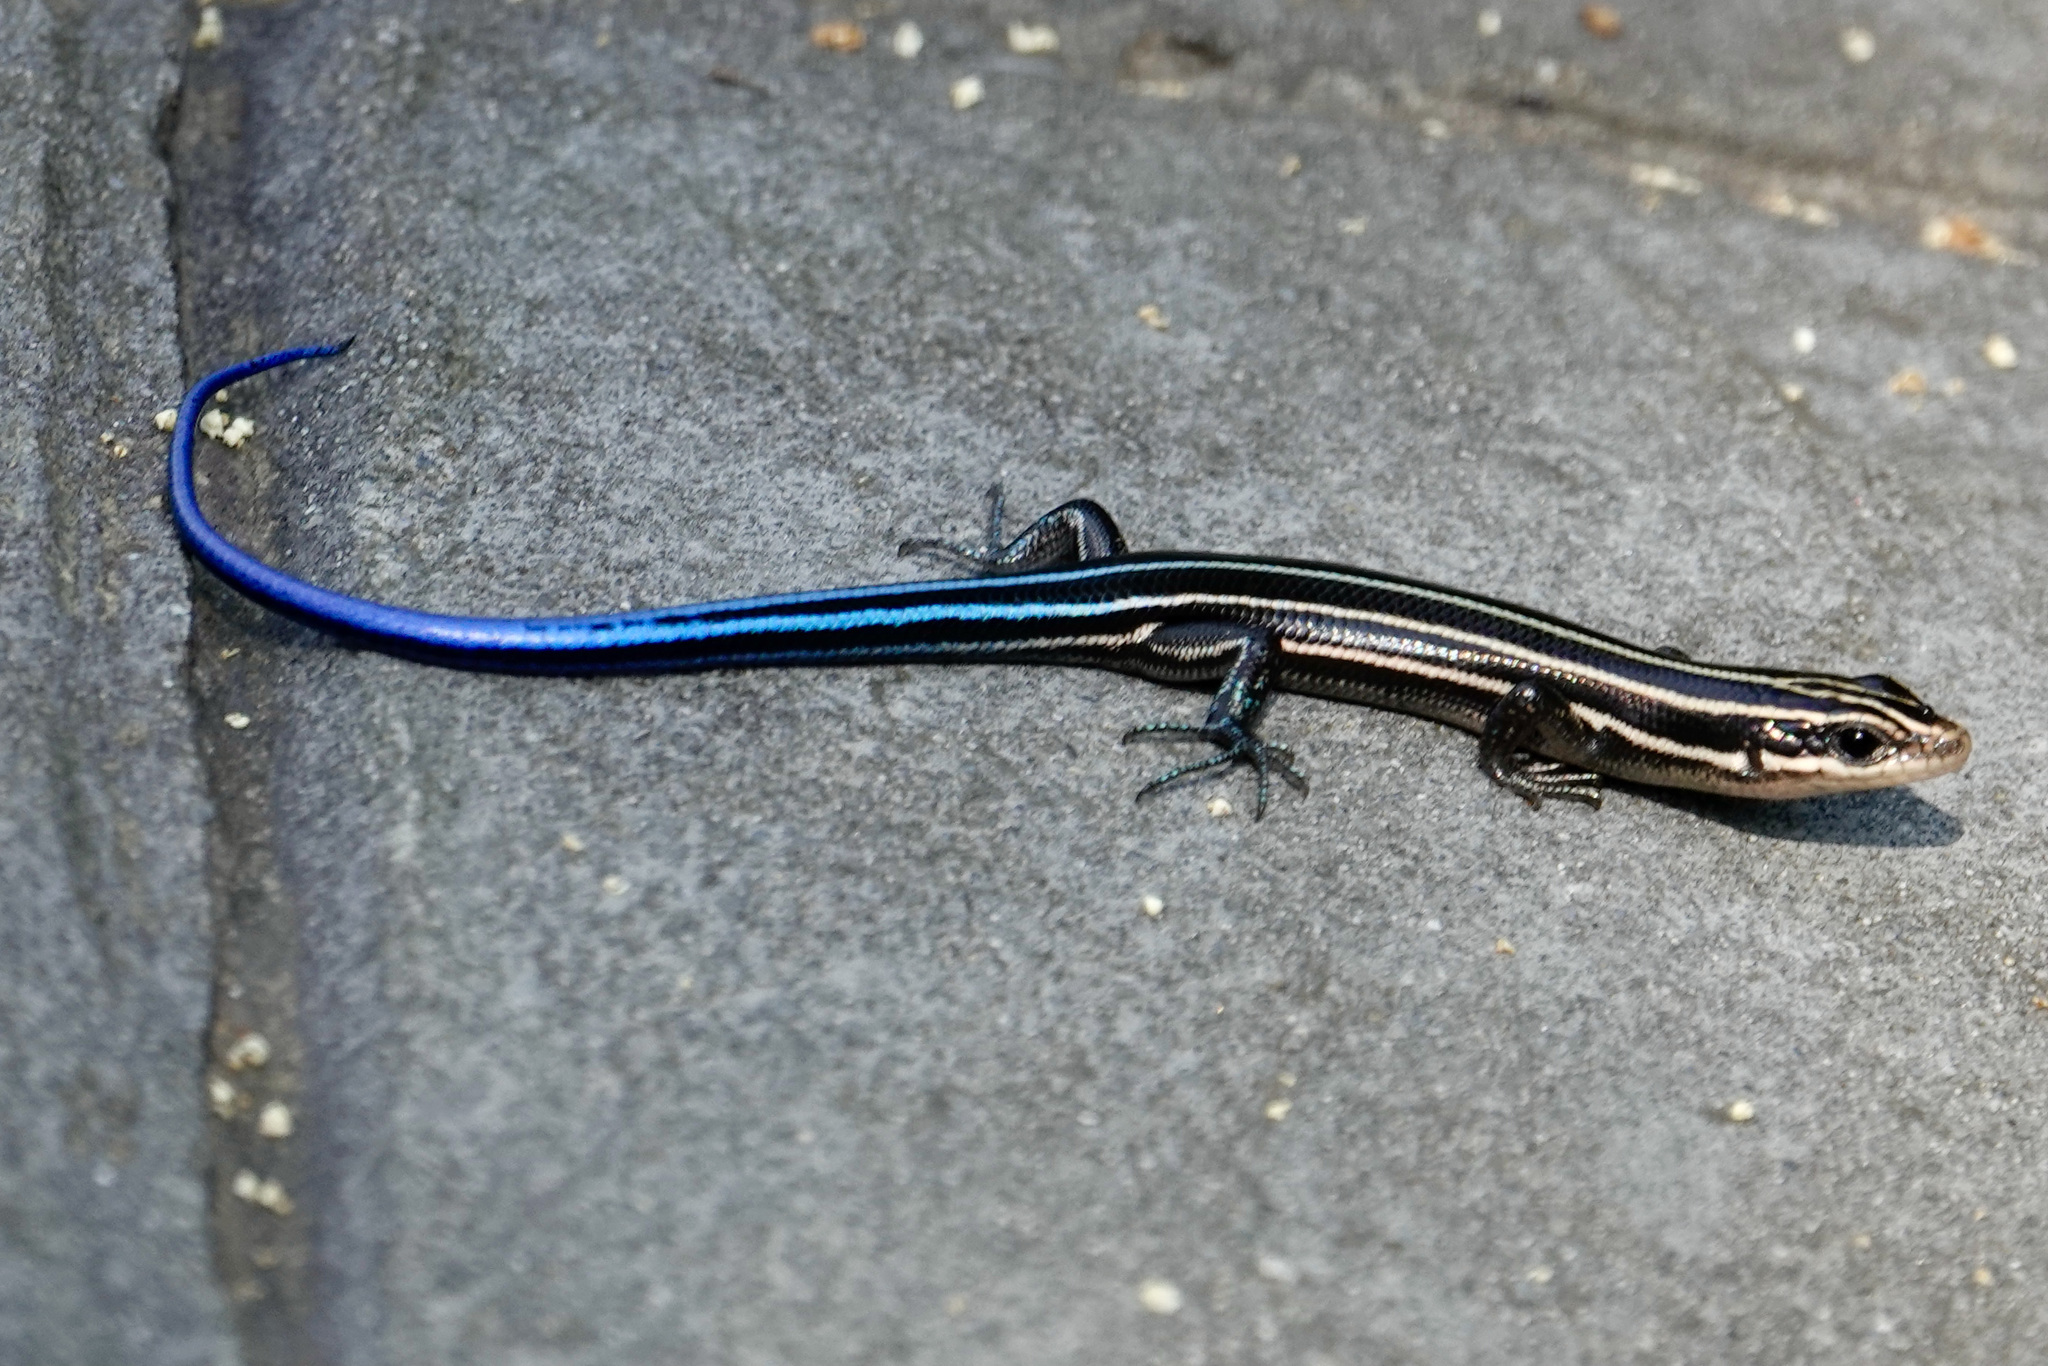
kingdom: Animalia
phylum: Chordata
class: Squamata
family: Scincidae
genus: Plestiodon
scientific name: Plestiodon fasciatus
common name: Five-lined skink
